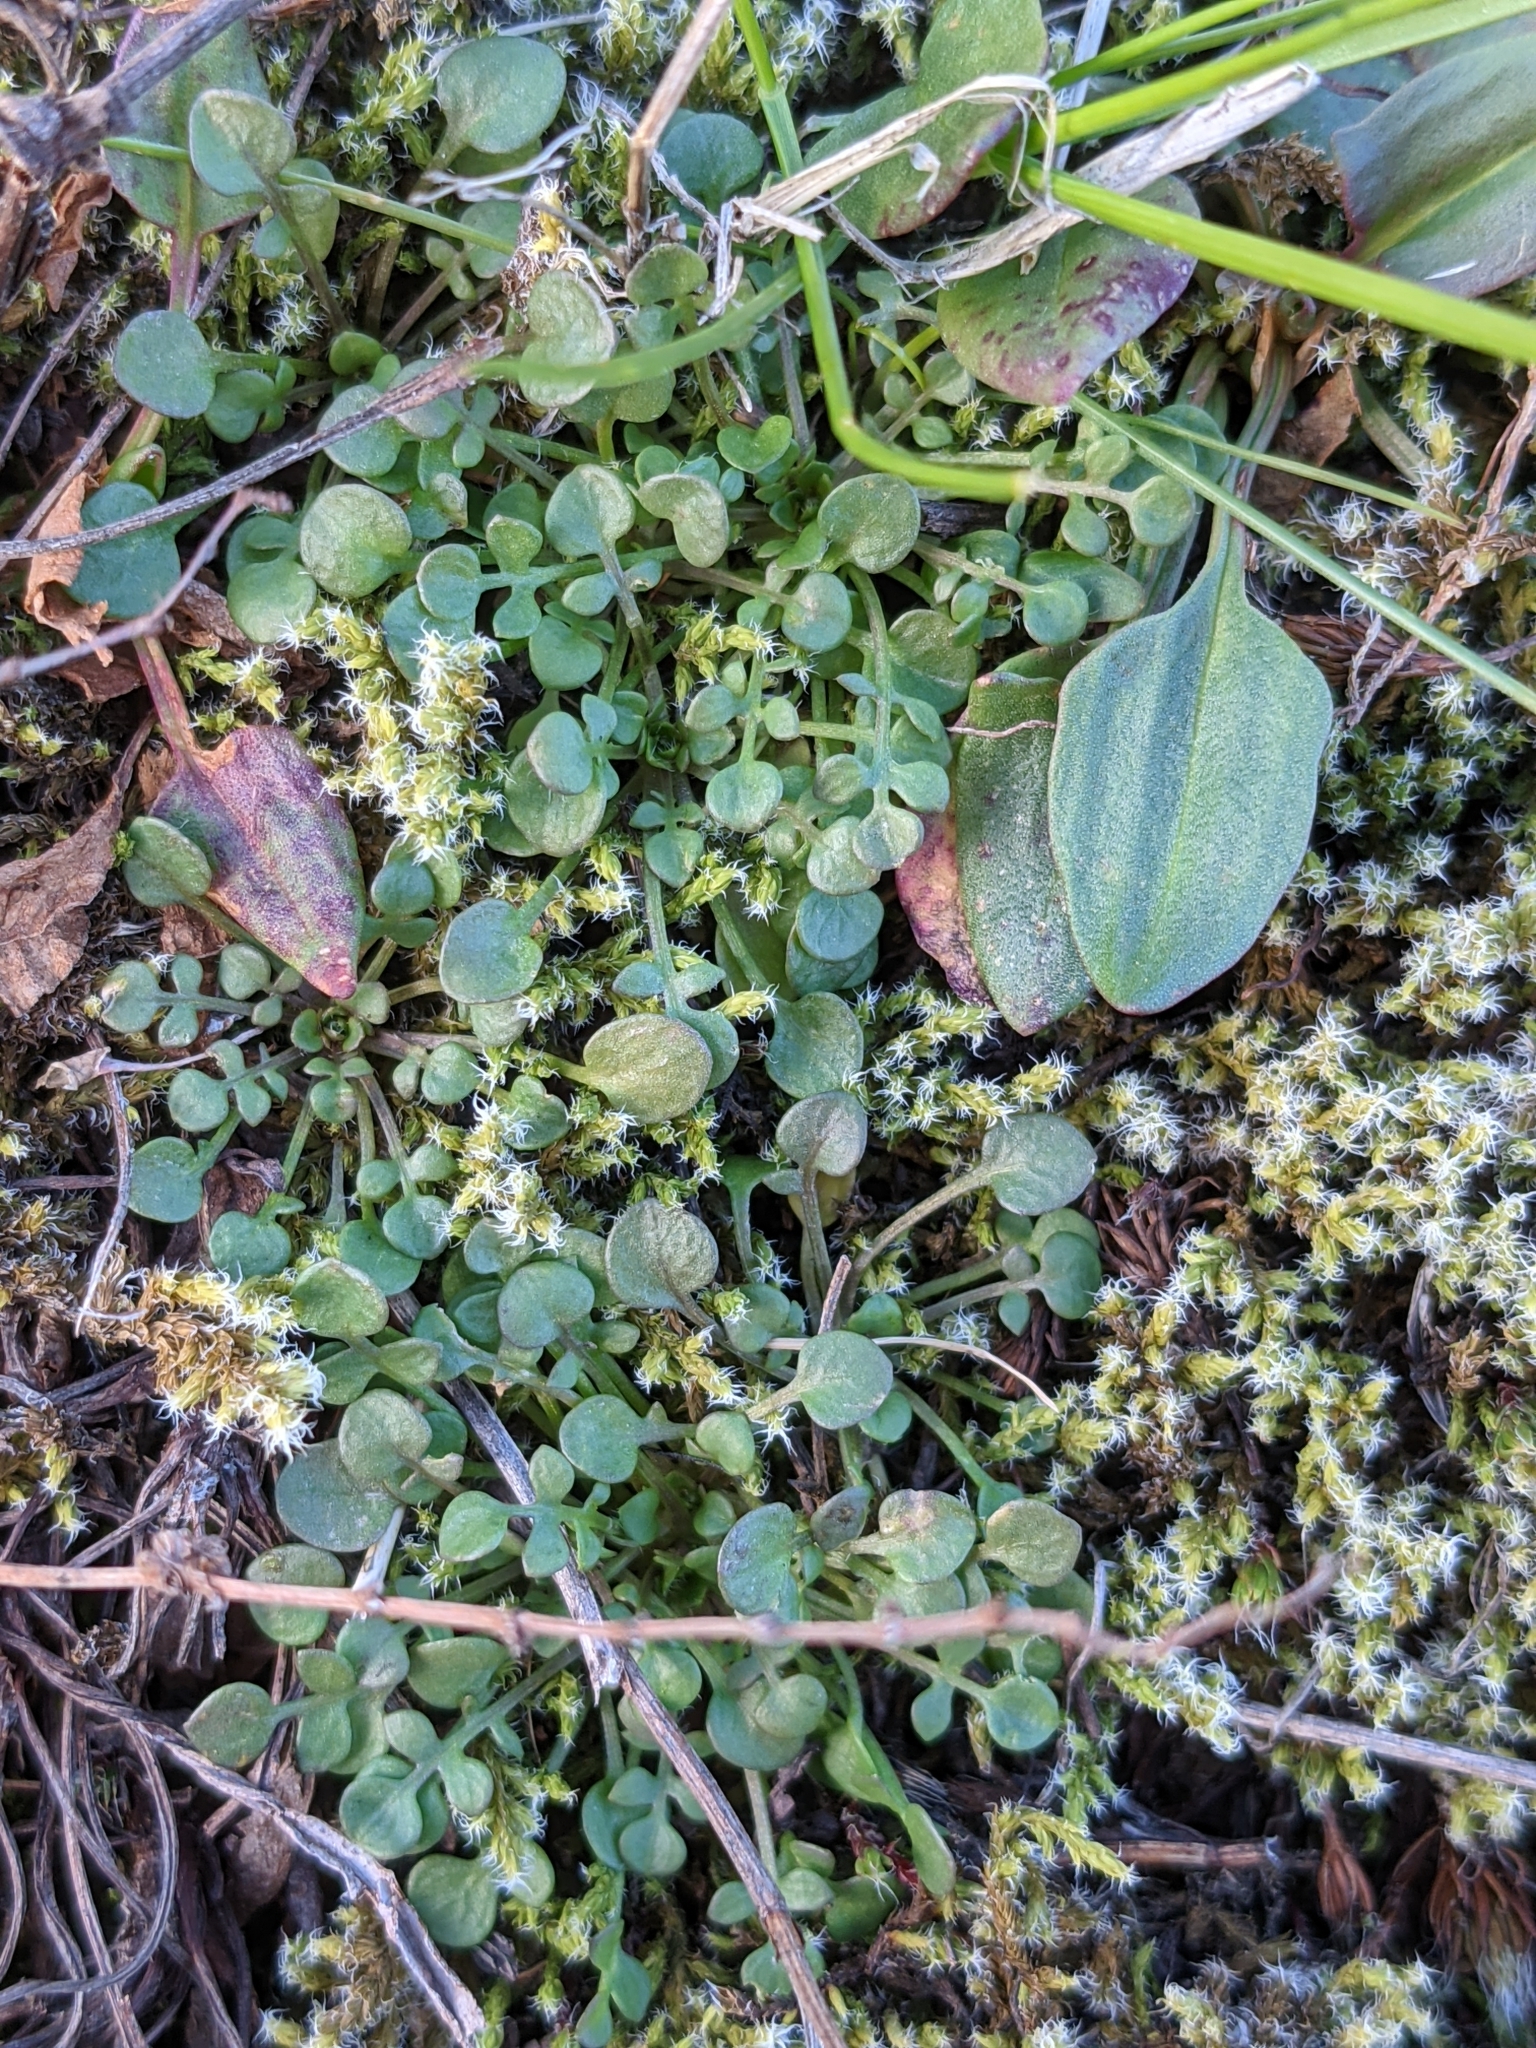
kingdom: Plantae
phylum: Tracheophyta
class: Magnoliopsida
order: Brassicales
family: Brassicaceae
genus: Teesdalia
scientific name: Teesdalia nudicaulis
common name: Shepherd's cress
